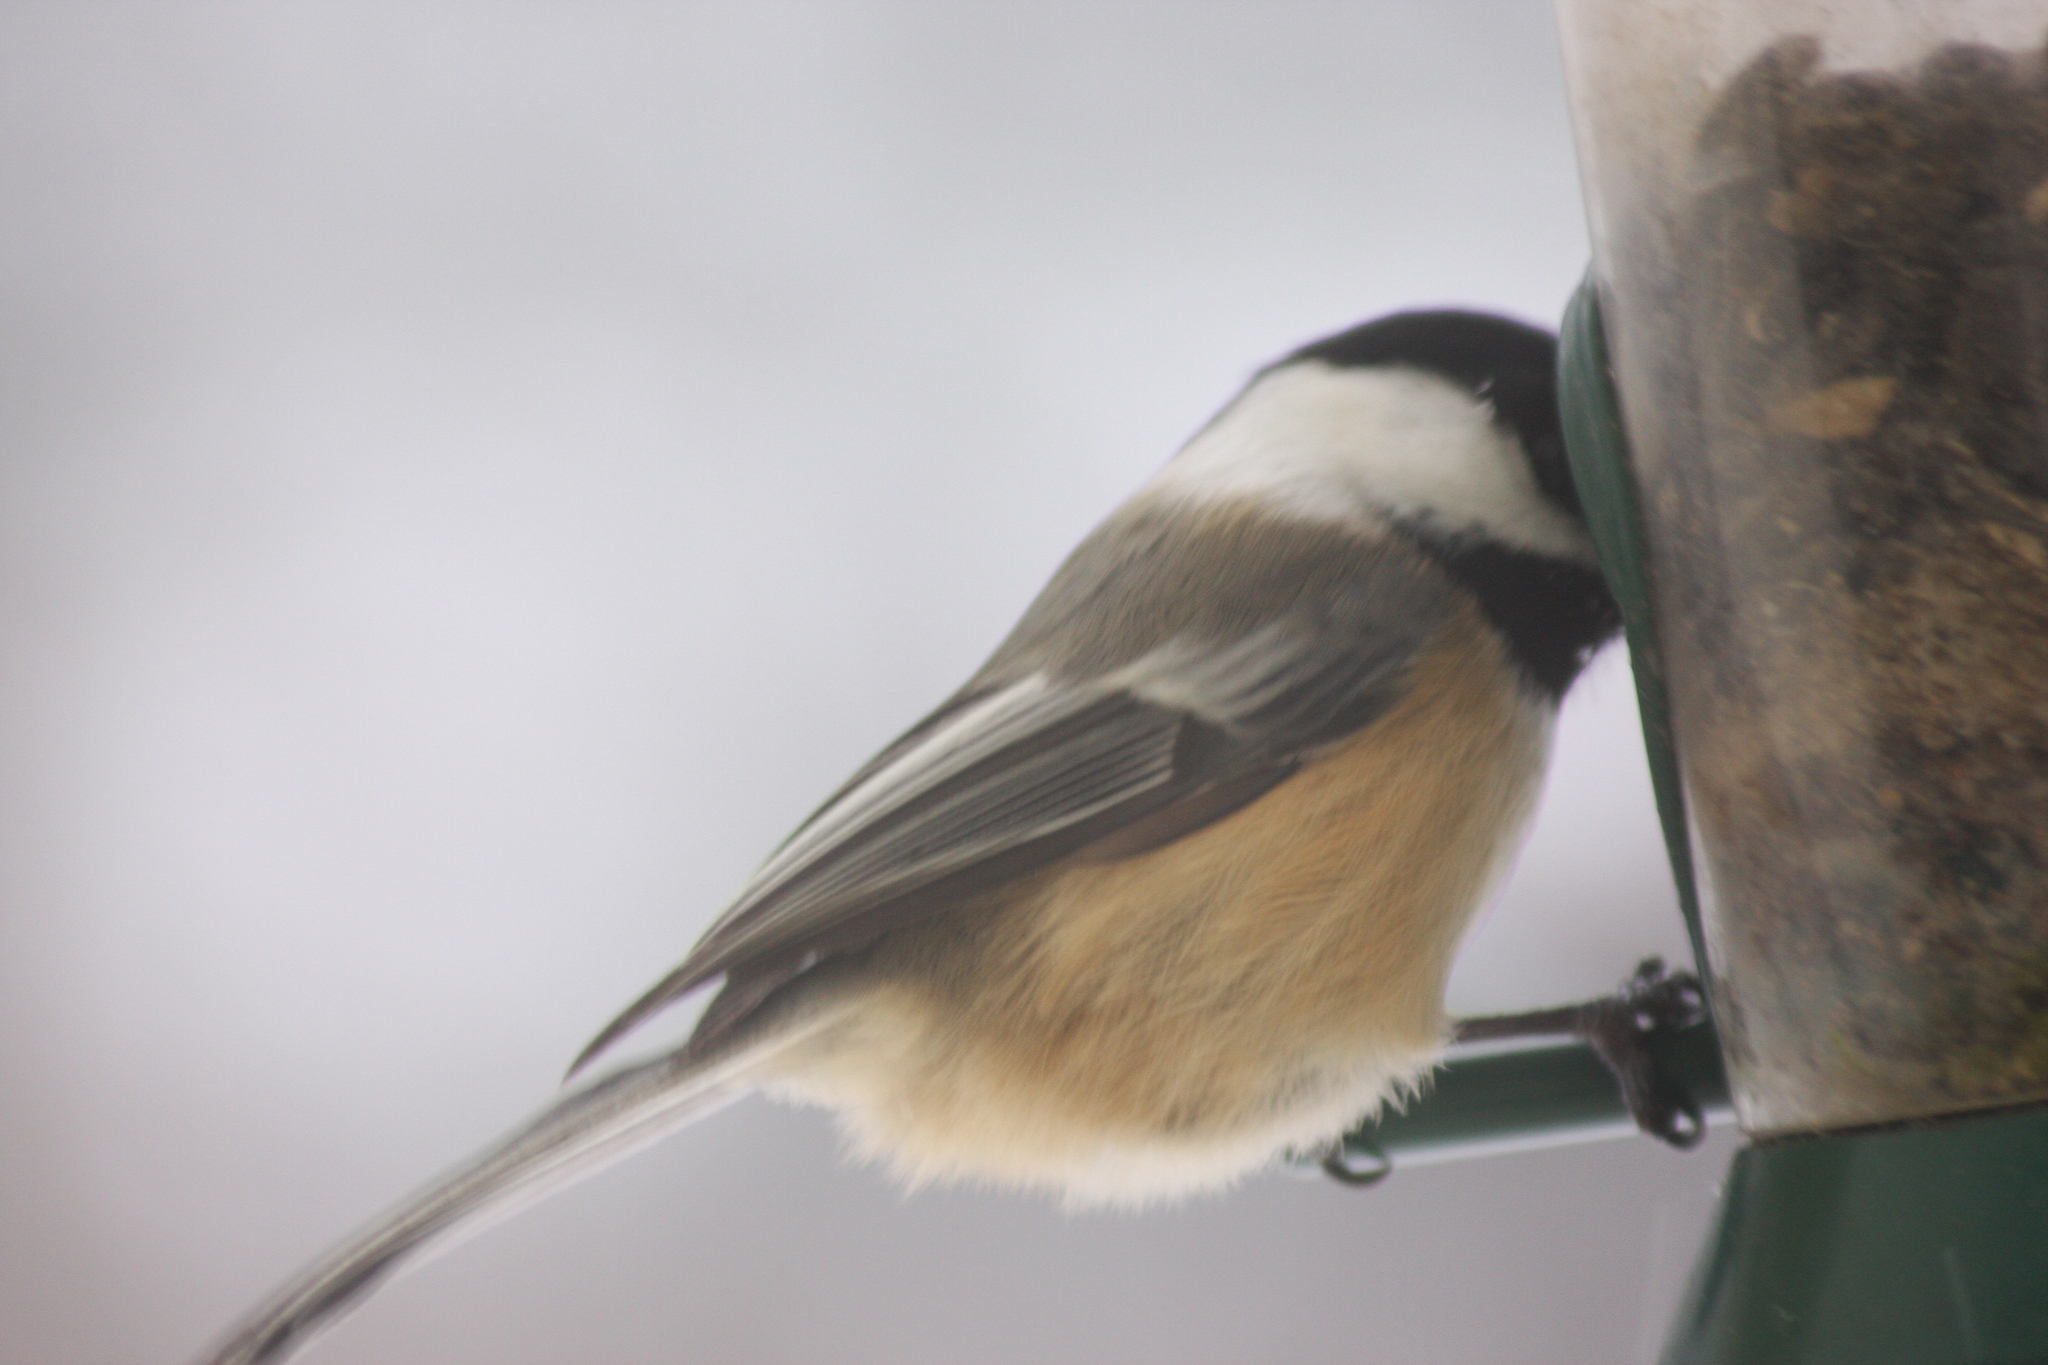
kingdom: Animalia
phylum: Chordata
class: Aves
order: Passeriformes
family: Paridae
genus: Poecile
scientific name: Poecile atricapillus
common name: Black-capped chickadee
